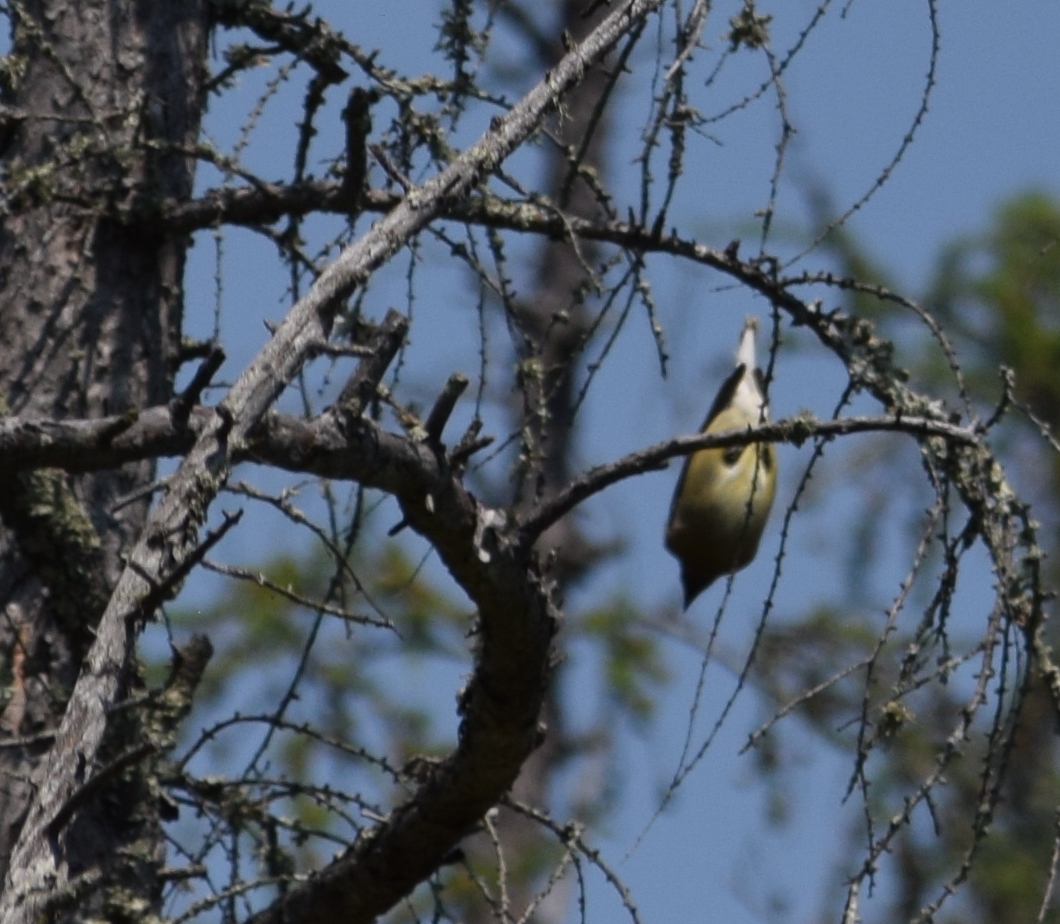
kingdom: Animalia
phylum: Chordata
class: Aves
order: Passeriformes
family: Bombycillidae
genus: Bombycilla
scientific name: Bombycilla cedrorum
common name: Cedar waxwing
